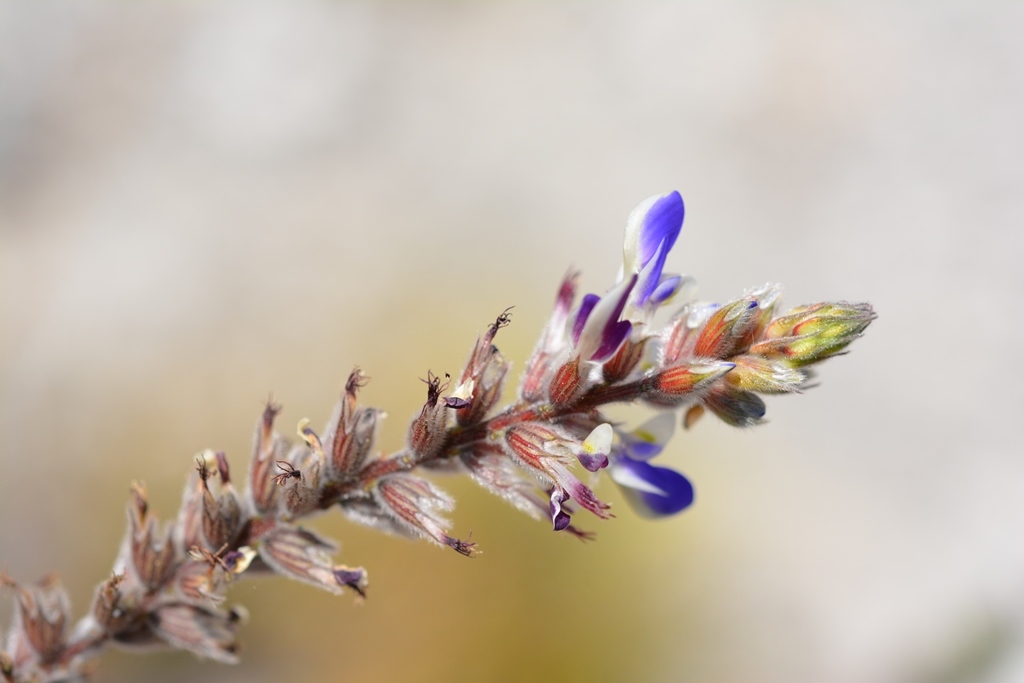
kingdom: Plantae
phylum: Tracheophyta
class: Magnoliopsida
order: Fabales
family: Fabaceae
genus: Marina
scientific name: Marina spiciformis
